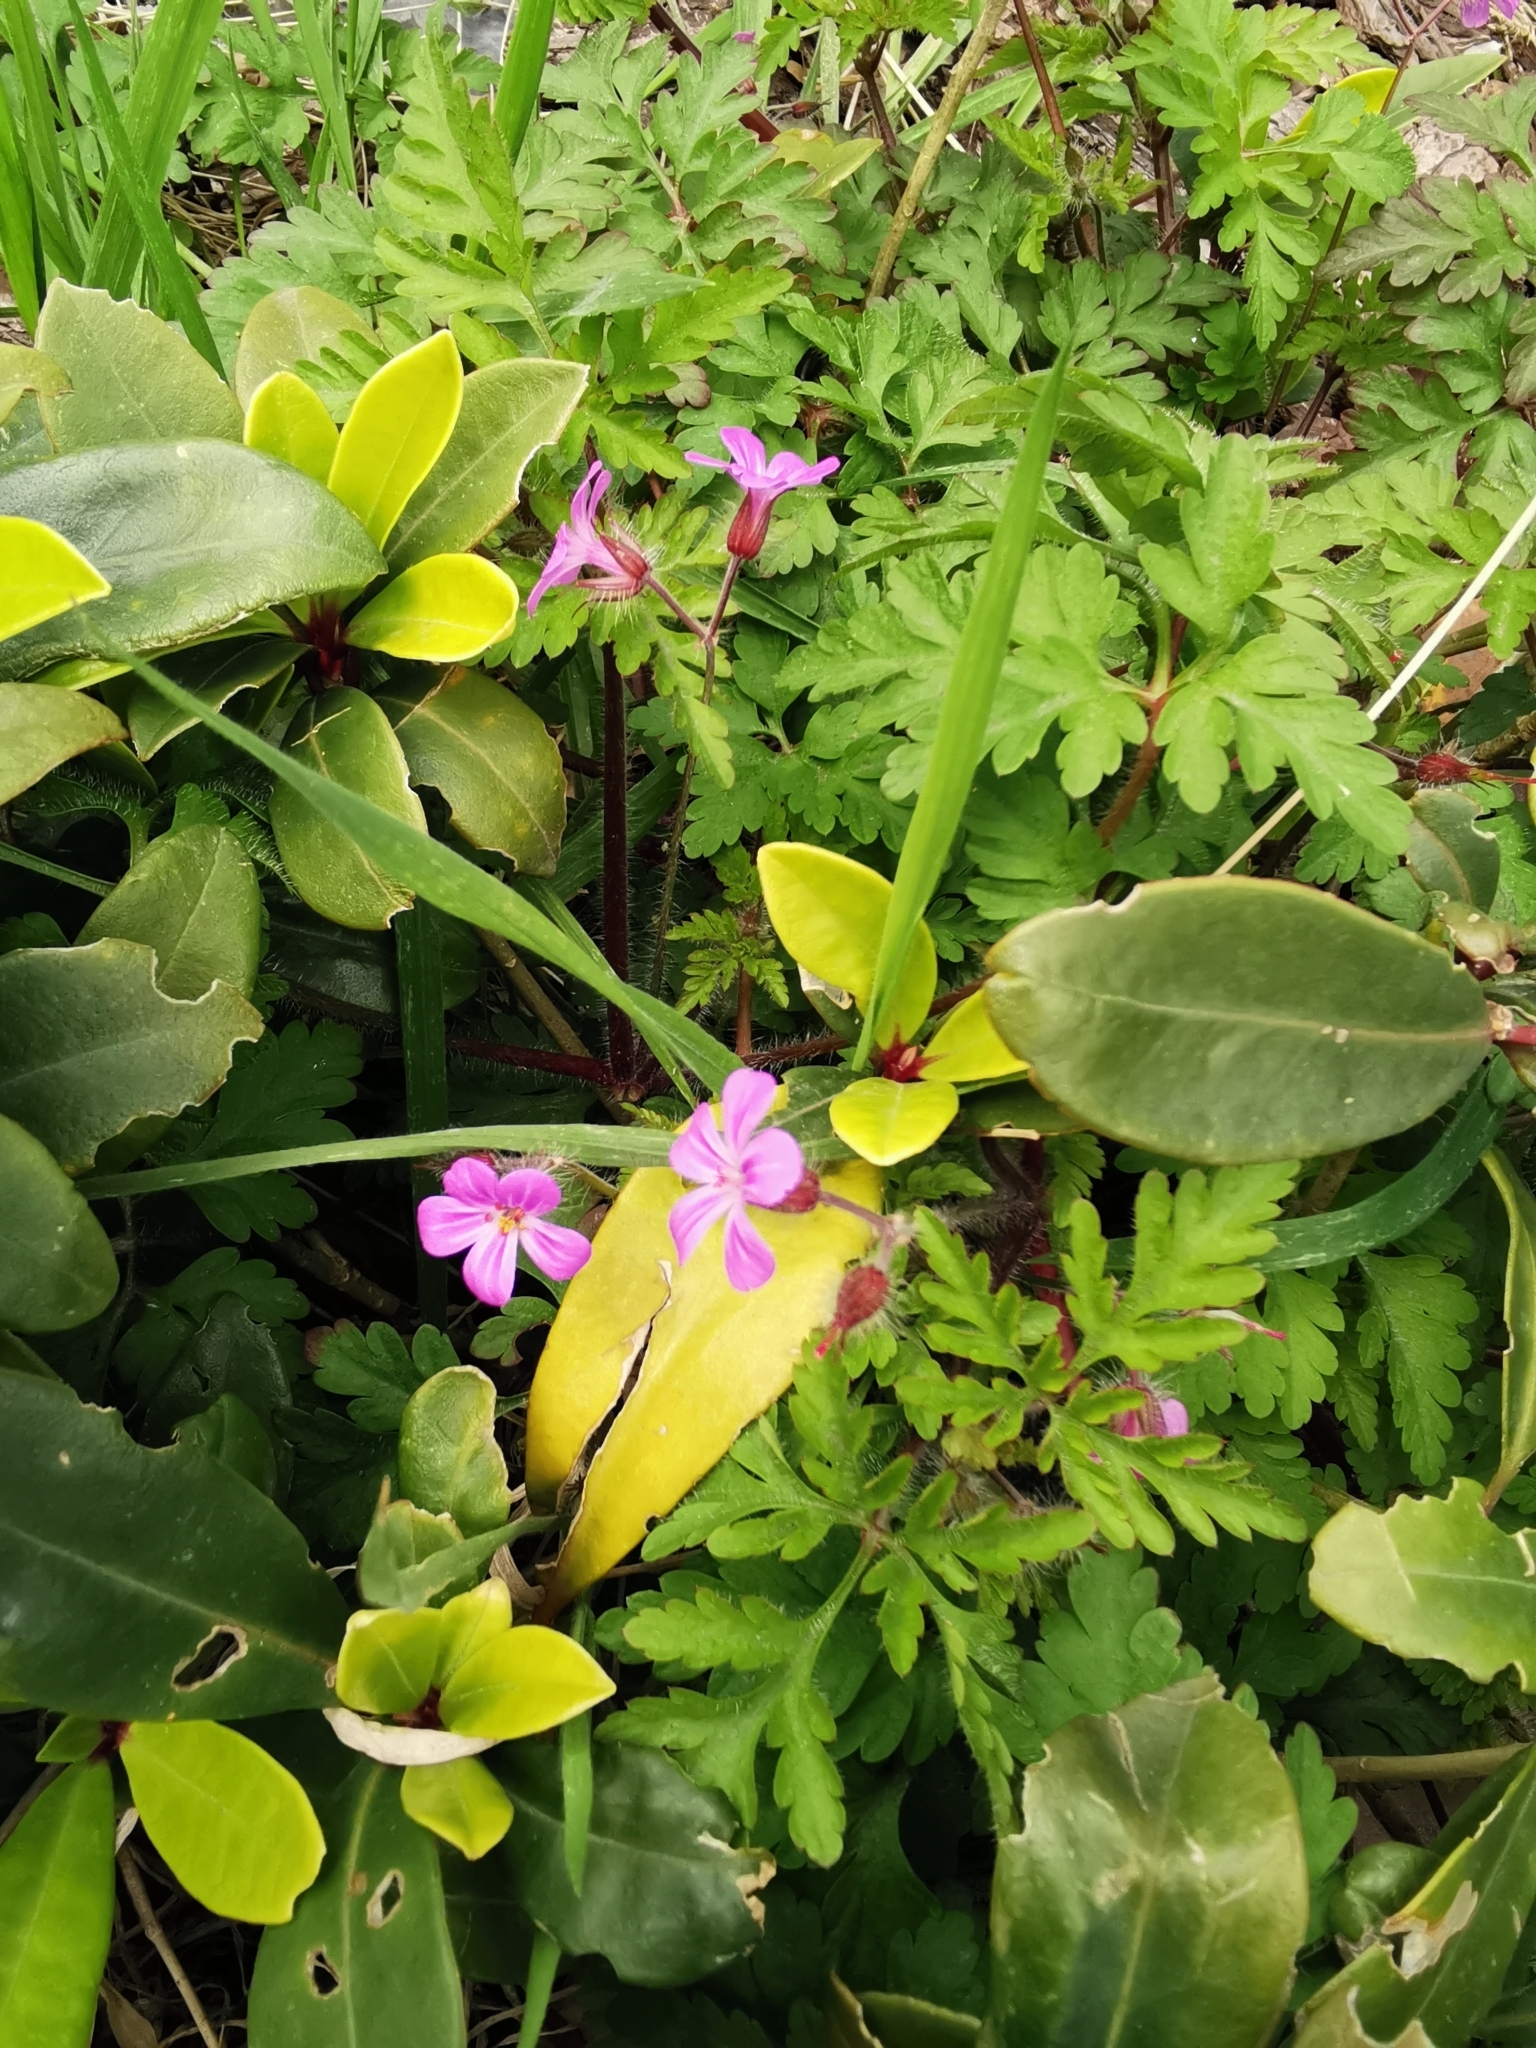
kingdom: Plantae
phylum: Tracheophyta
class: Magnoliopsida
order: Geraniales
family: Geraniaceae
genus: Geranium
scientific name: Geranium robertianum
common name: Herb-robert
